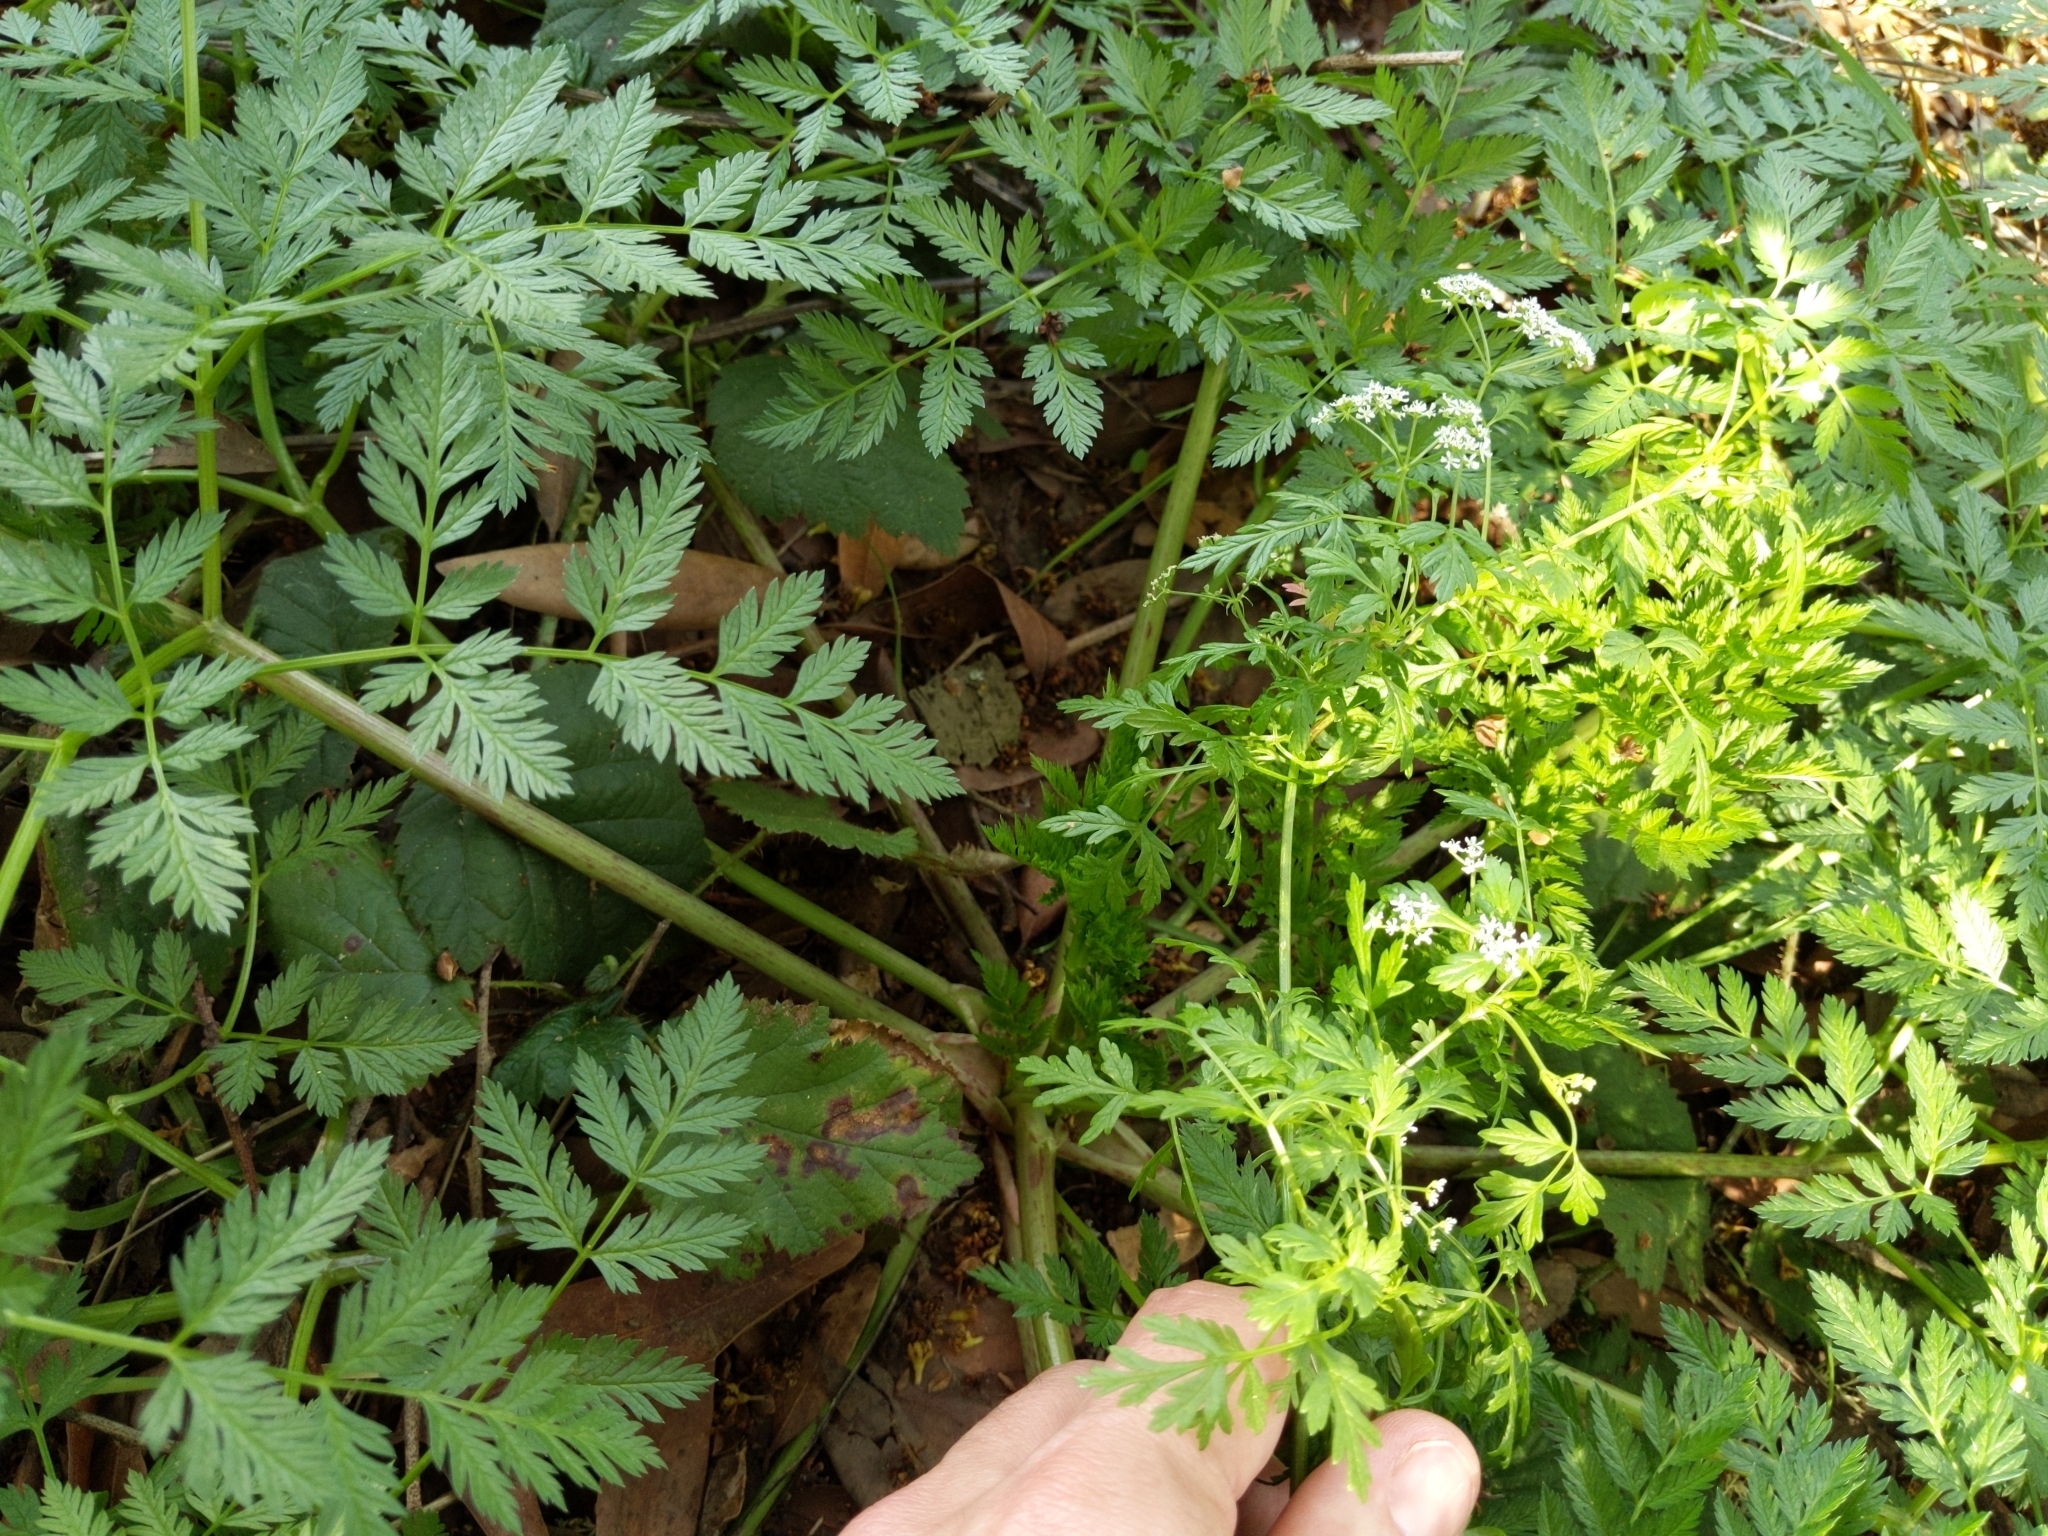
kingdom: Plantae
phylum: Tracheophyta
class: Magnoliopsida
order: Apiales
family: Apiaceae
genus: Conium
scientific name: Conium maculatum
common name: Hemlock
